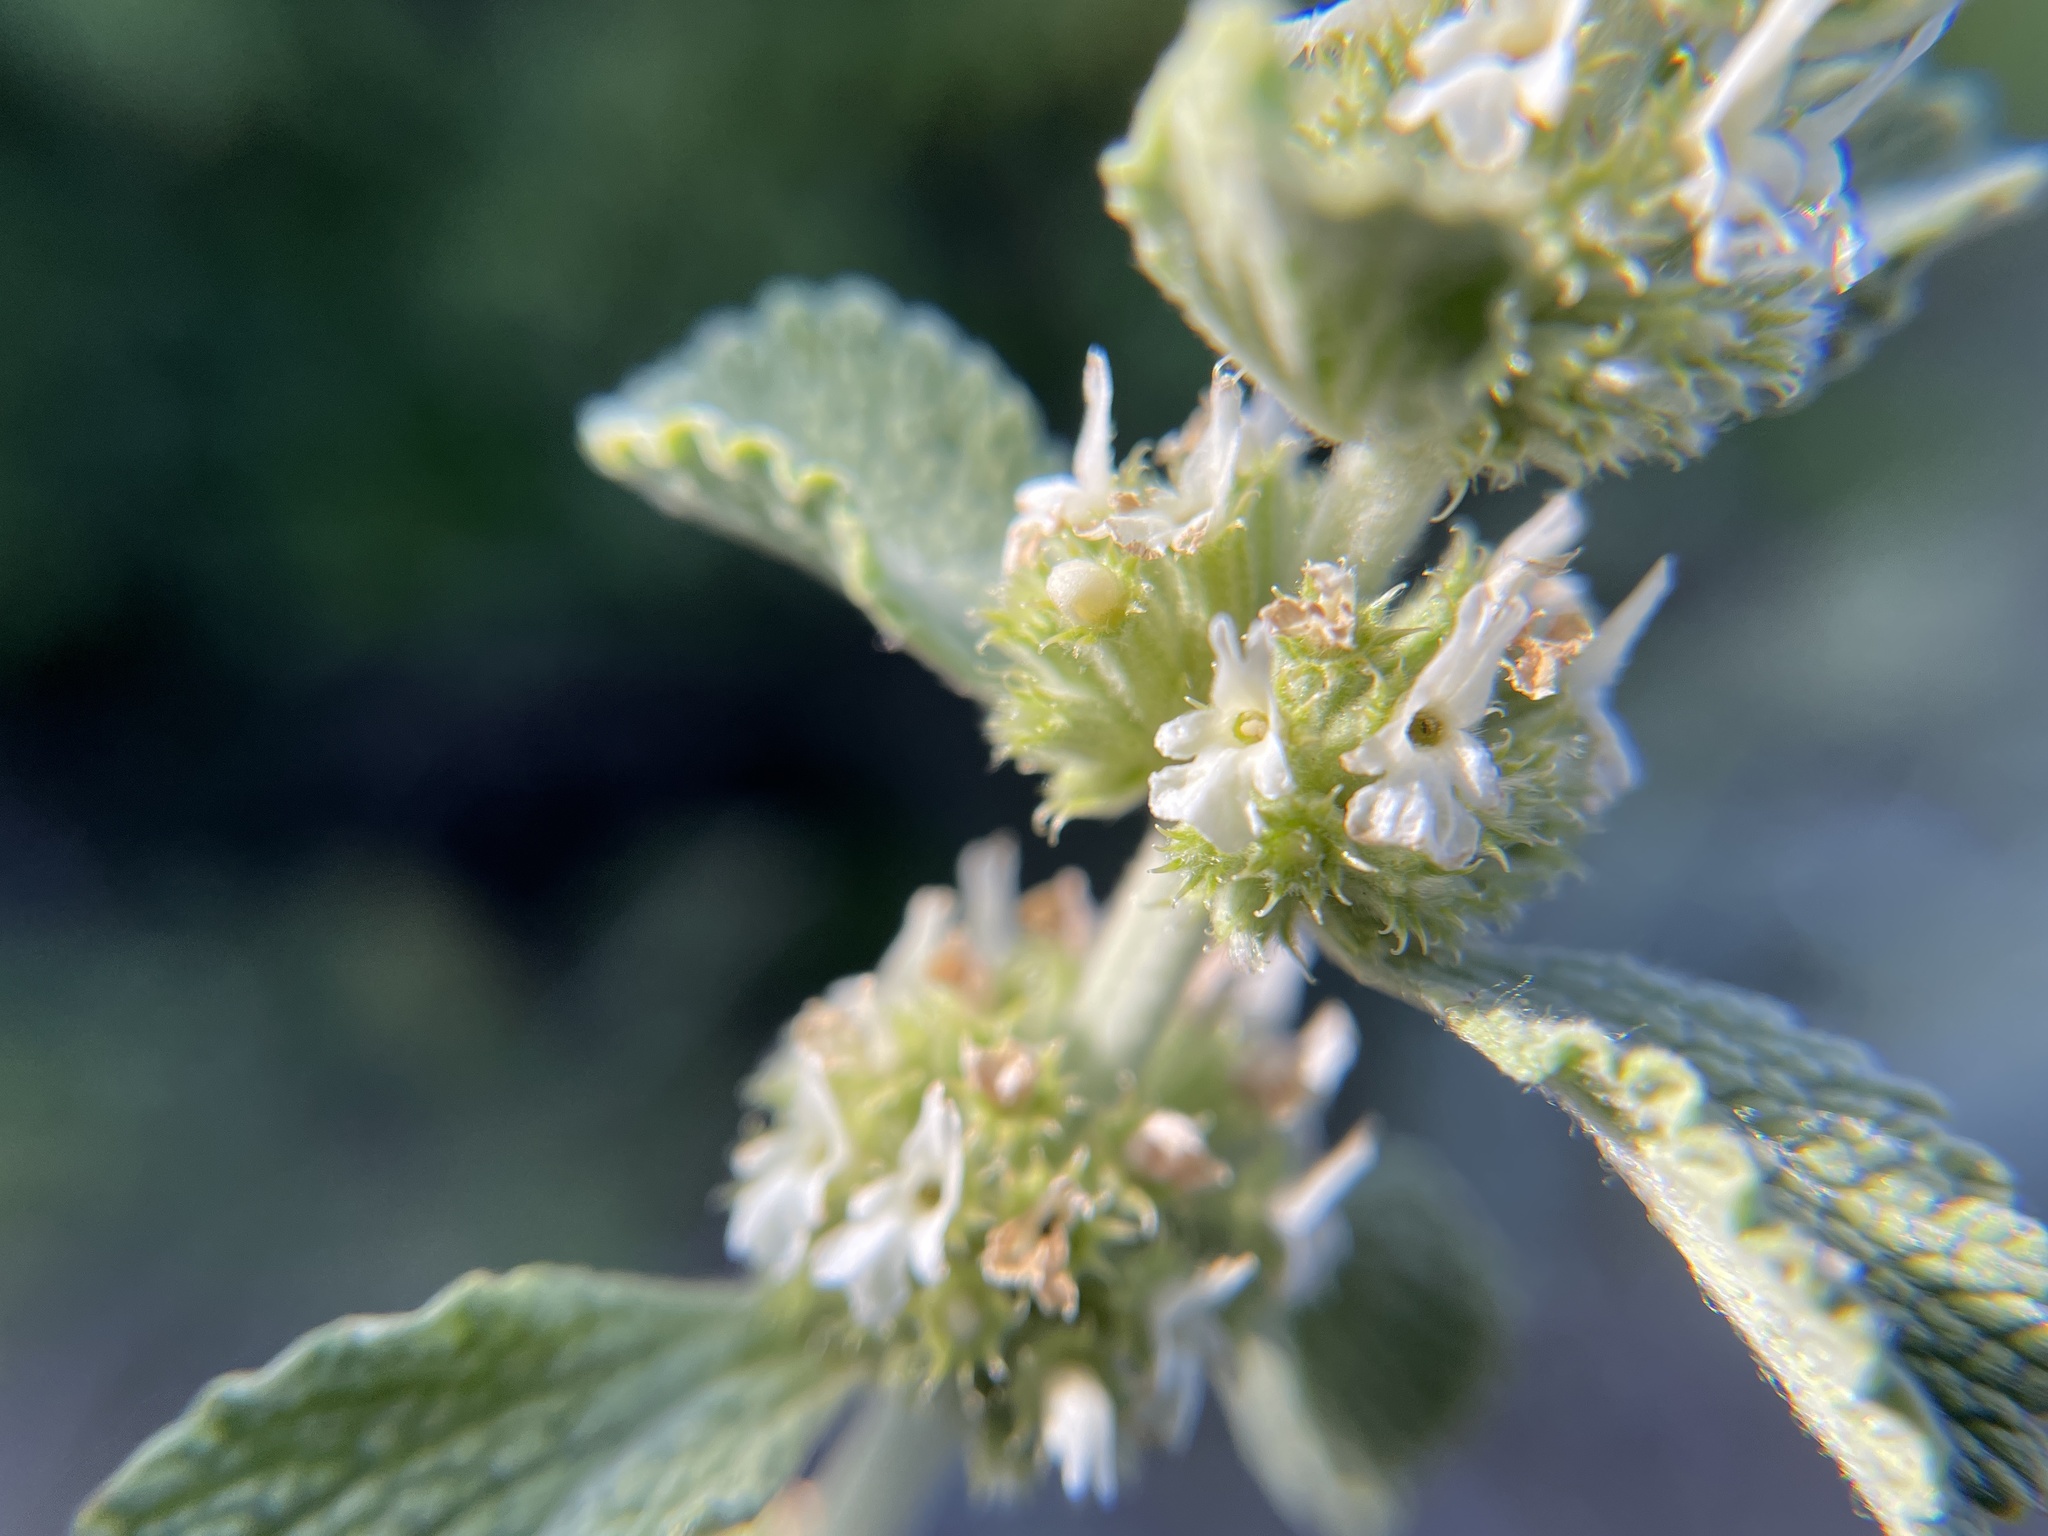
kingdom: Plantae
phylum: Tracheophyta
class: Magnoliopsida
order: Lamiales
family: Lamiaceae
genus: Marrubium
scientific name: Marrubium vulgare
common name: Horehound
